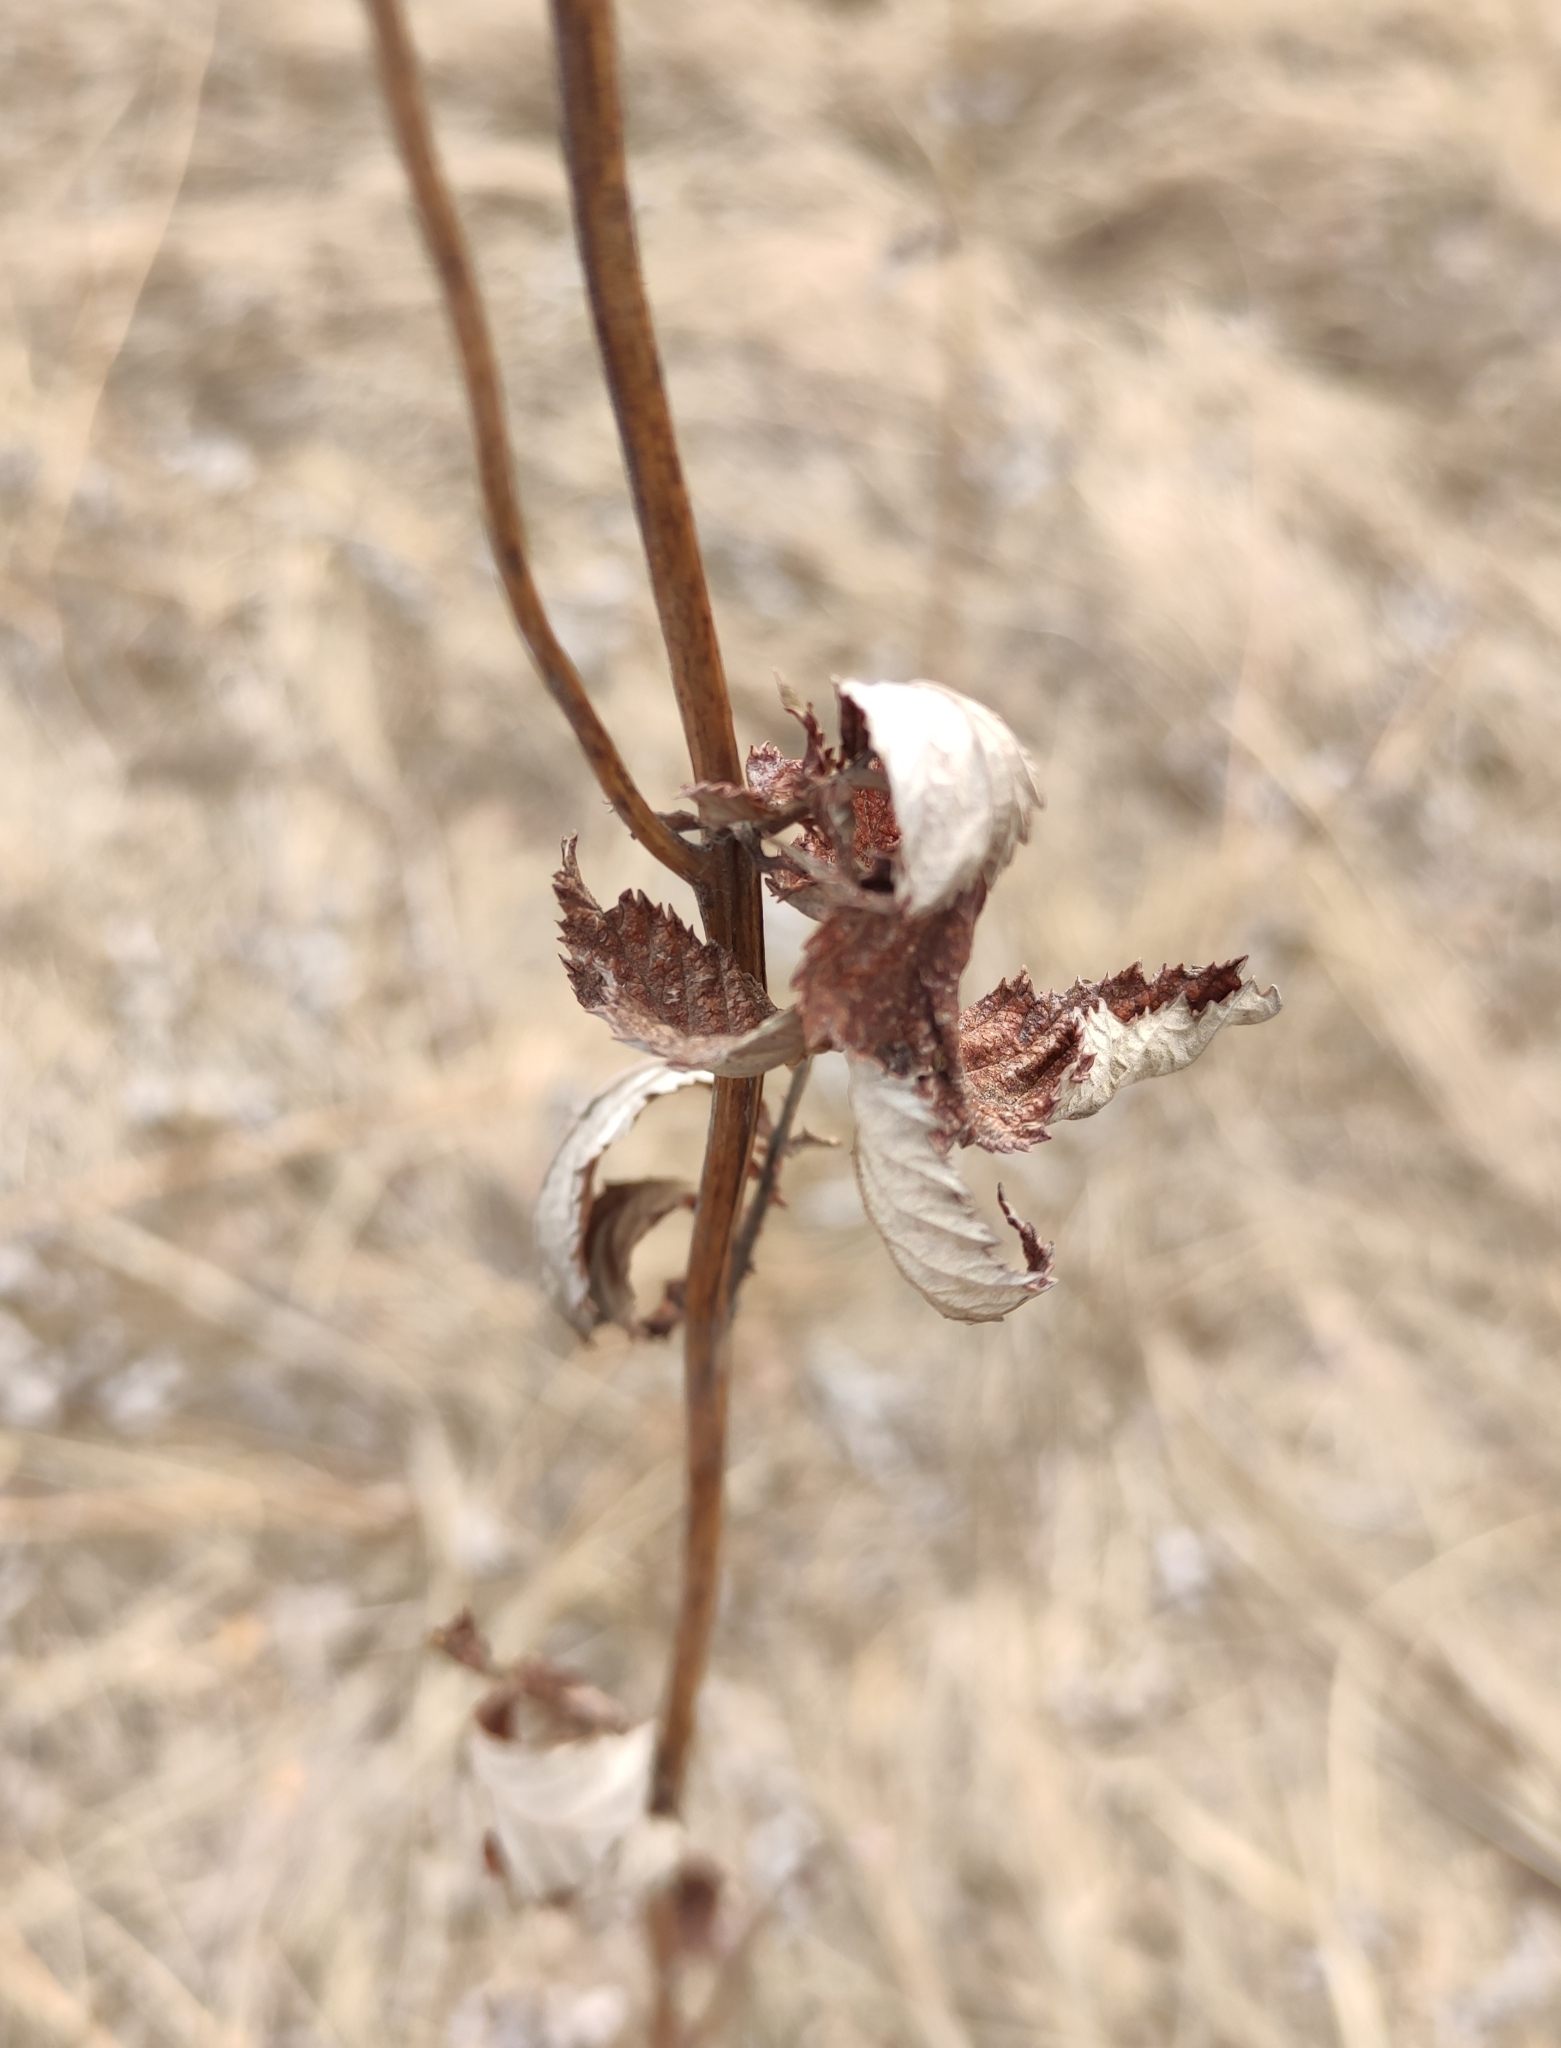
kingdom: Plantae
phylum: Tracheophyta
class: Magnoliopsida
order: Rosales
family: Rosaceae
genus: Filipendula
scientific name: Filipendula ulmaria
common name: Meadowsweet
